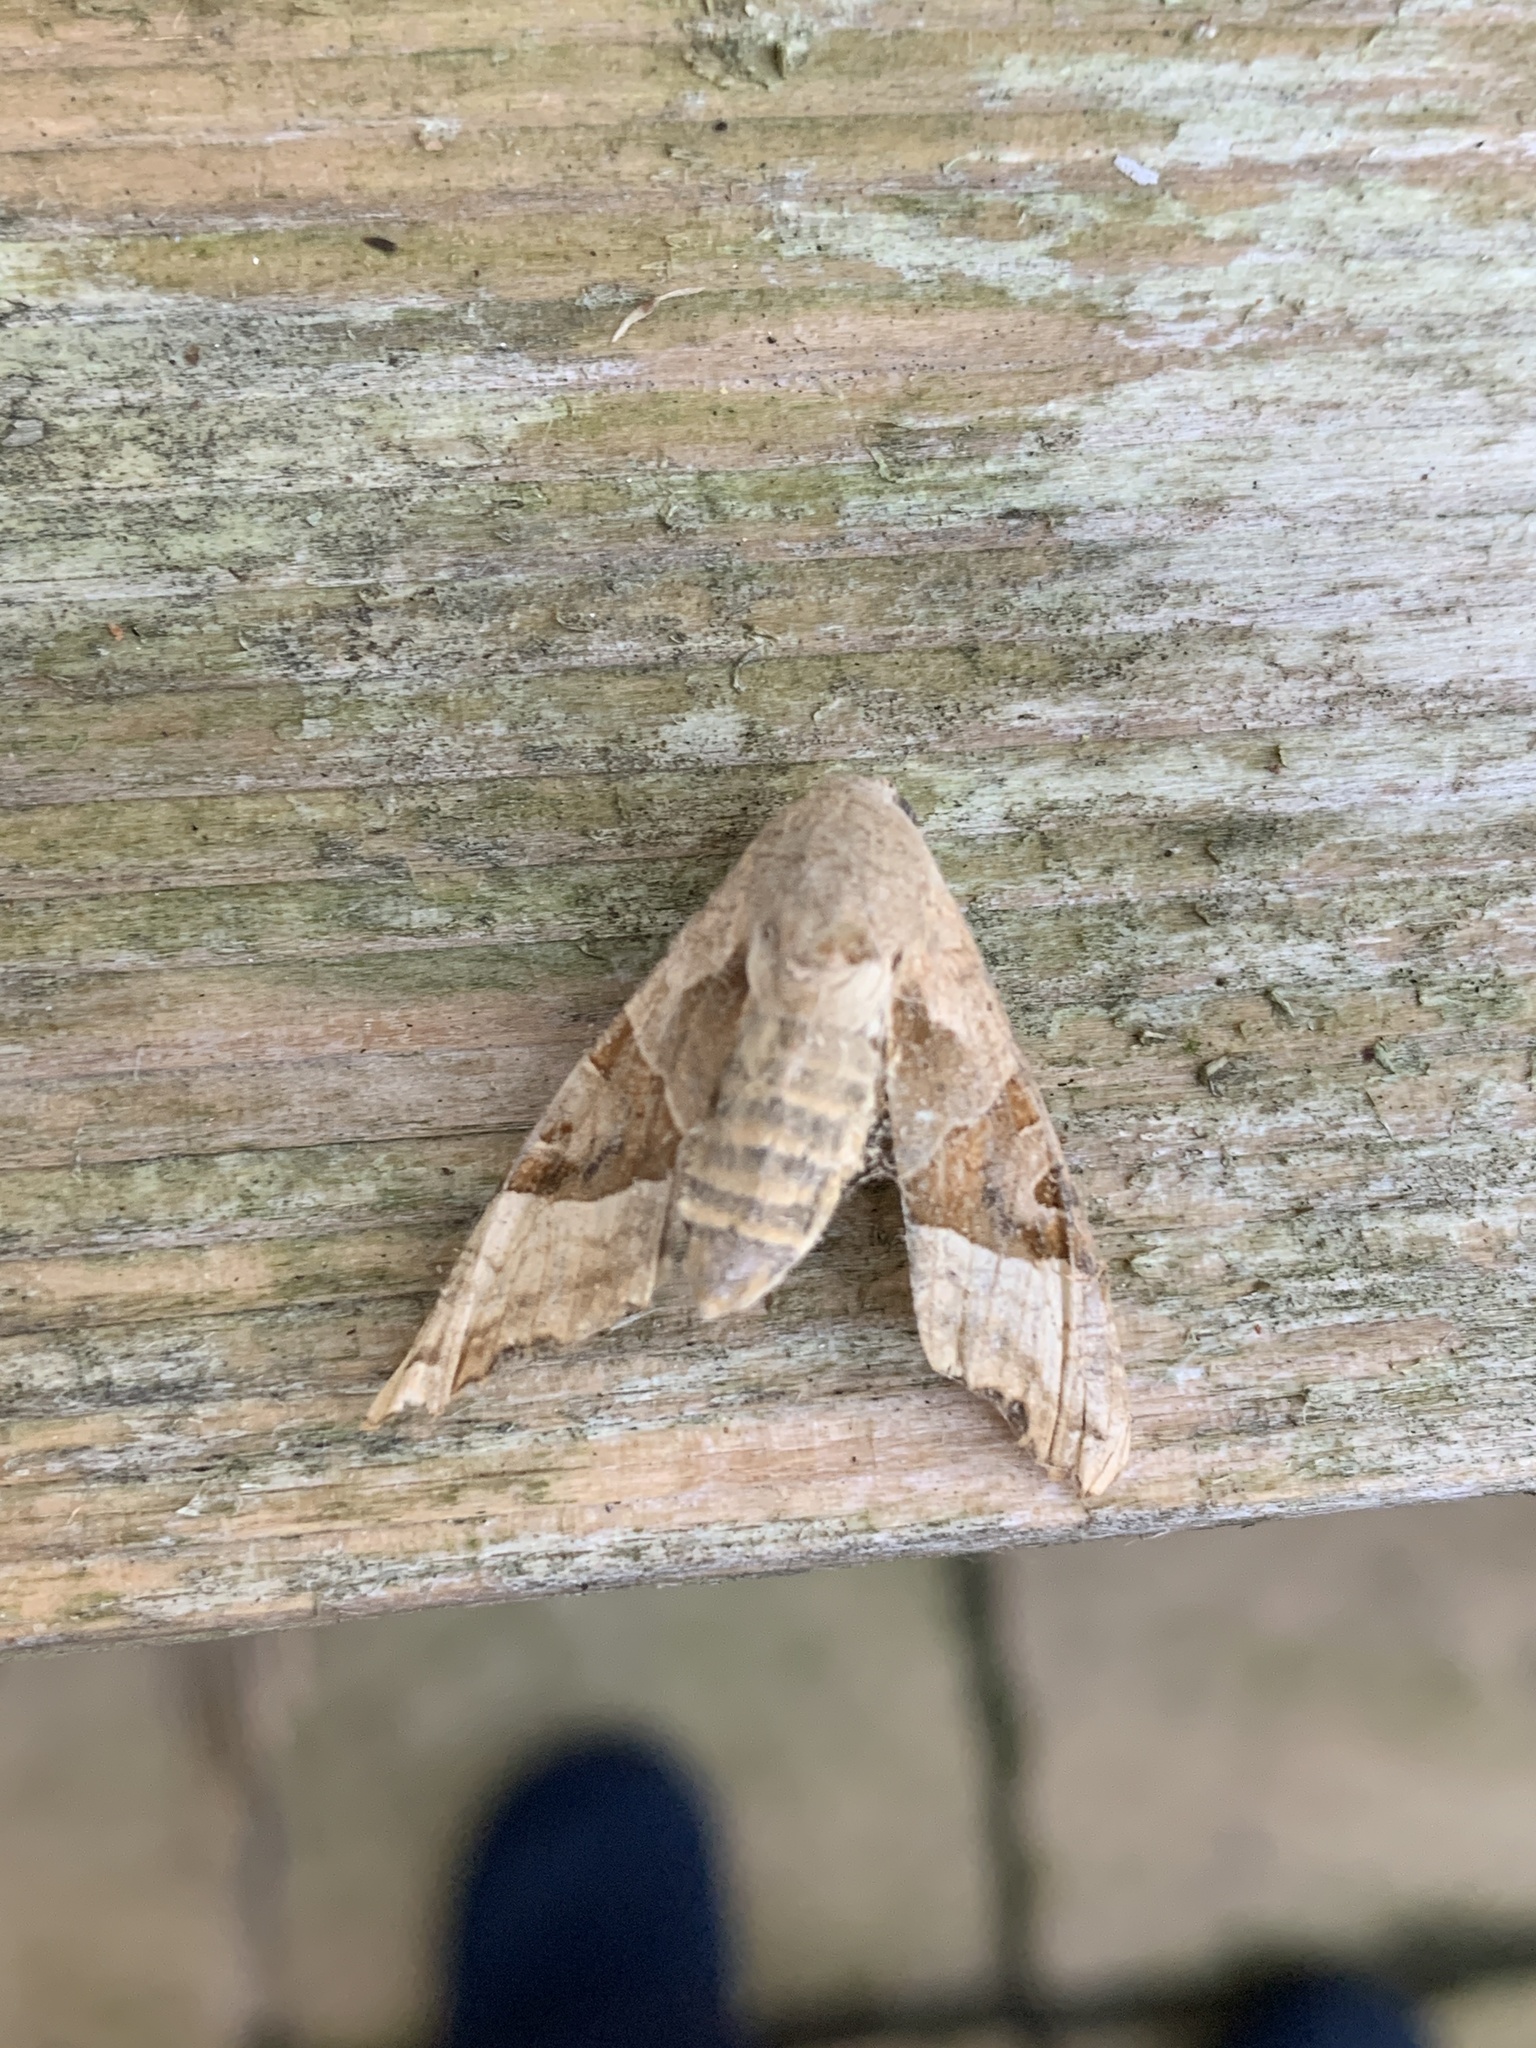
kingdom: Animalia
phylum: Arthropoda
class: Insecta
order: Lepidoptera
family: Noctuidae
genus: Phlogophora
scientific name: Phlogophora meticulosa
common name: Angle shades
